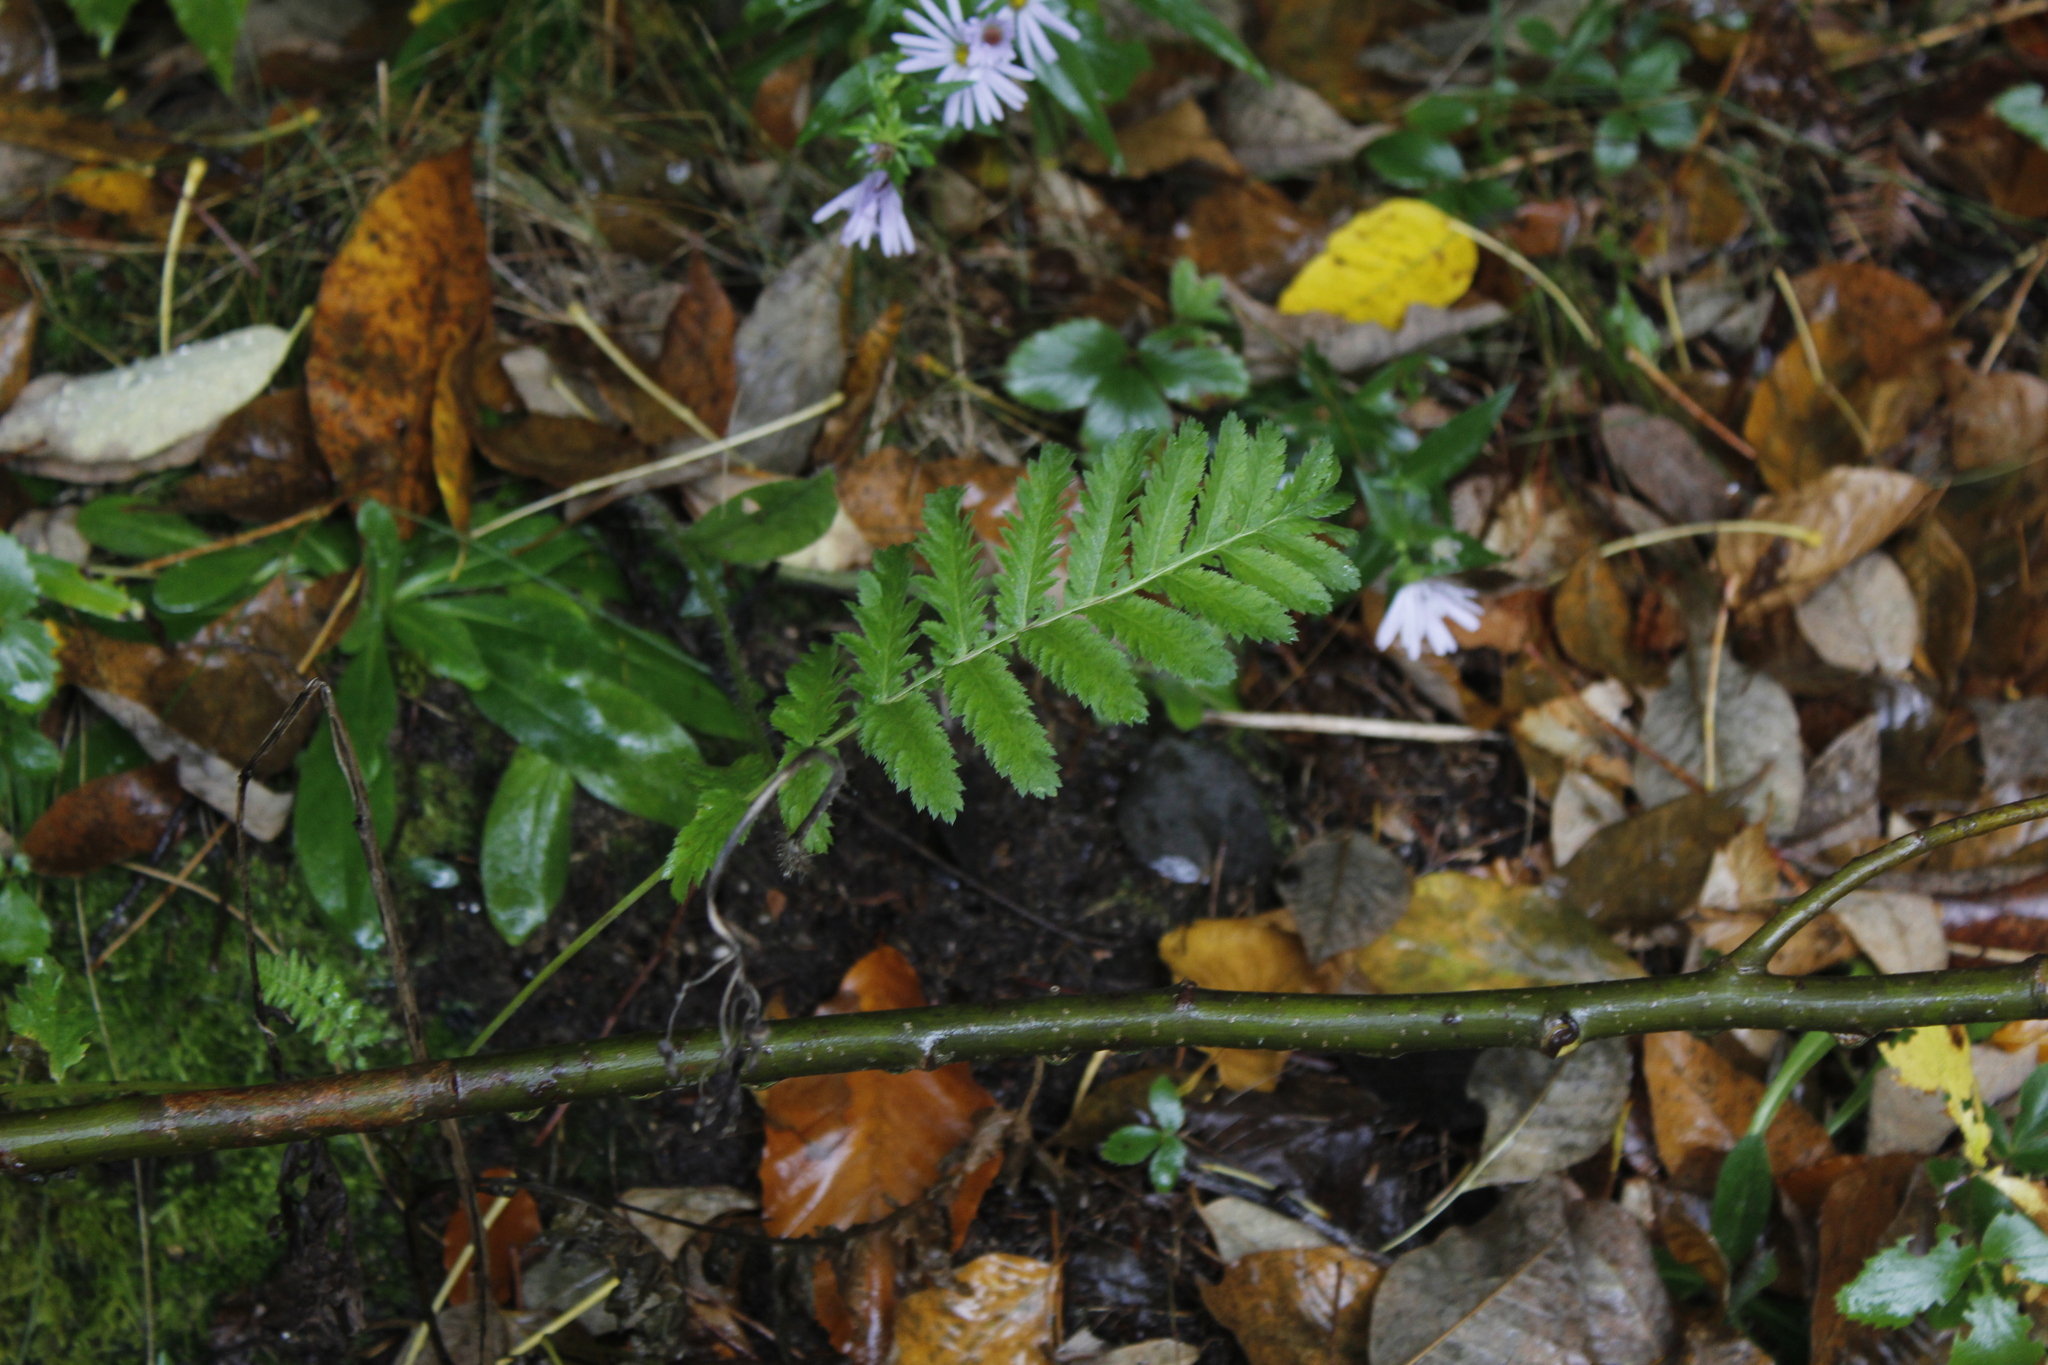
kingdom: Plantae
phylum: Tracheophyta
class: Magnoliopsida
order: Asterales
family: Asteraceae
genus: Tanacetum
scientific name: Tanacetum vulgare
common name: Common tansy
